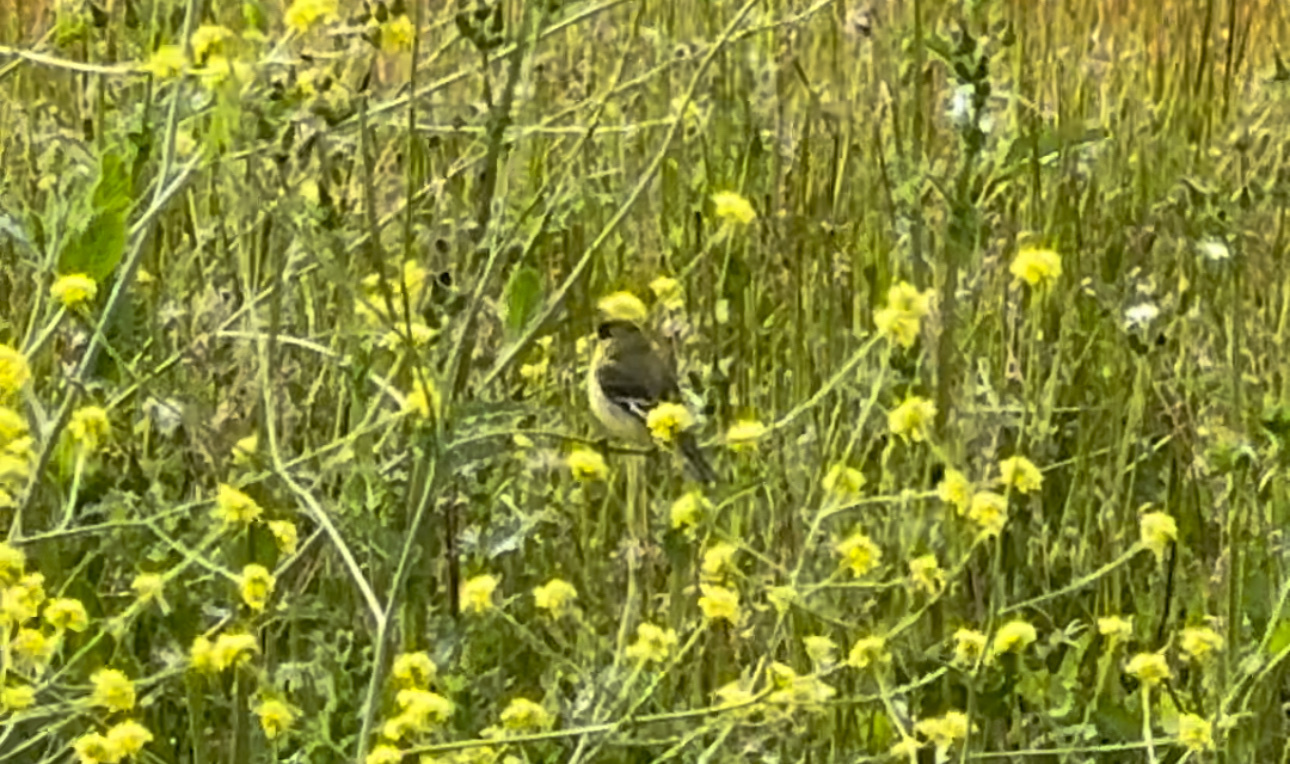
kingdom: Animalia
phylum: Chordata
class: Aves
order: Passeriformes
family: Fringillidae
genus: Spinus
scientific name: Spinus psaltria
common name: Lesser goldfinch
